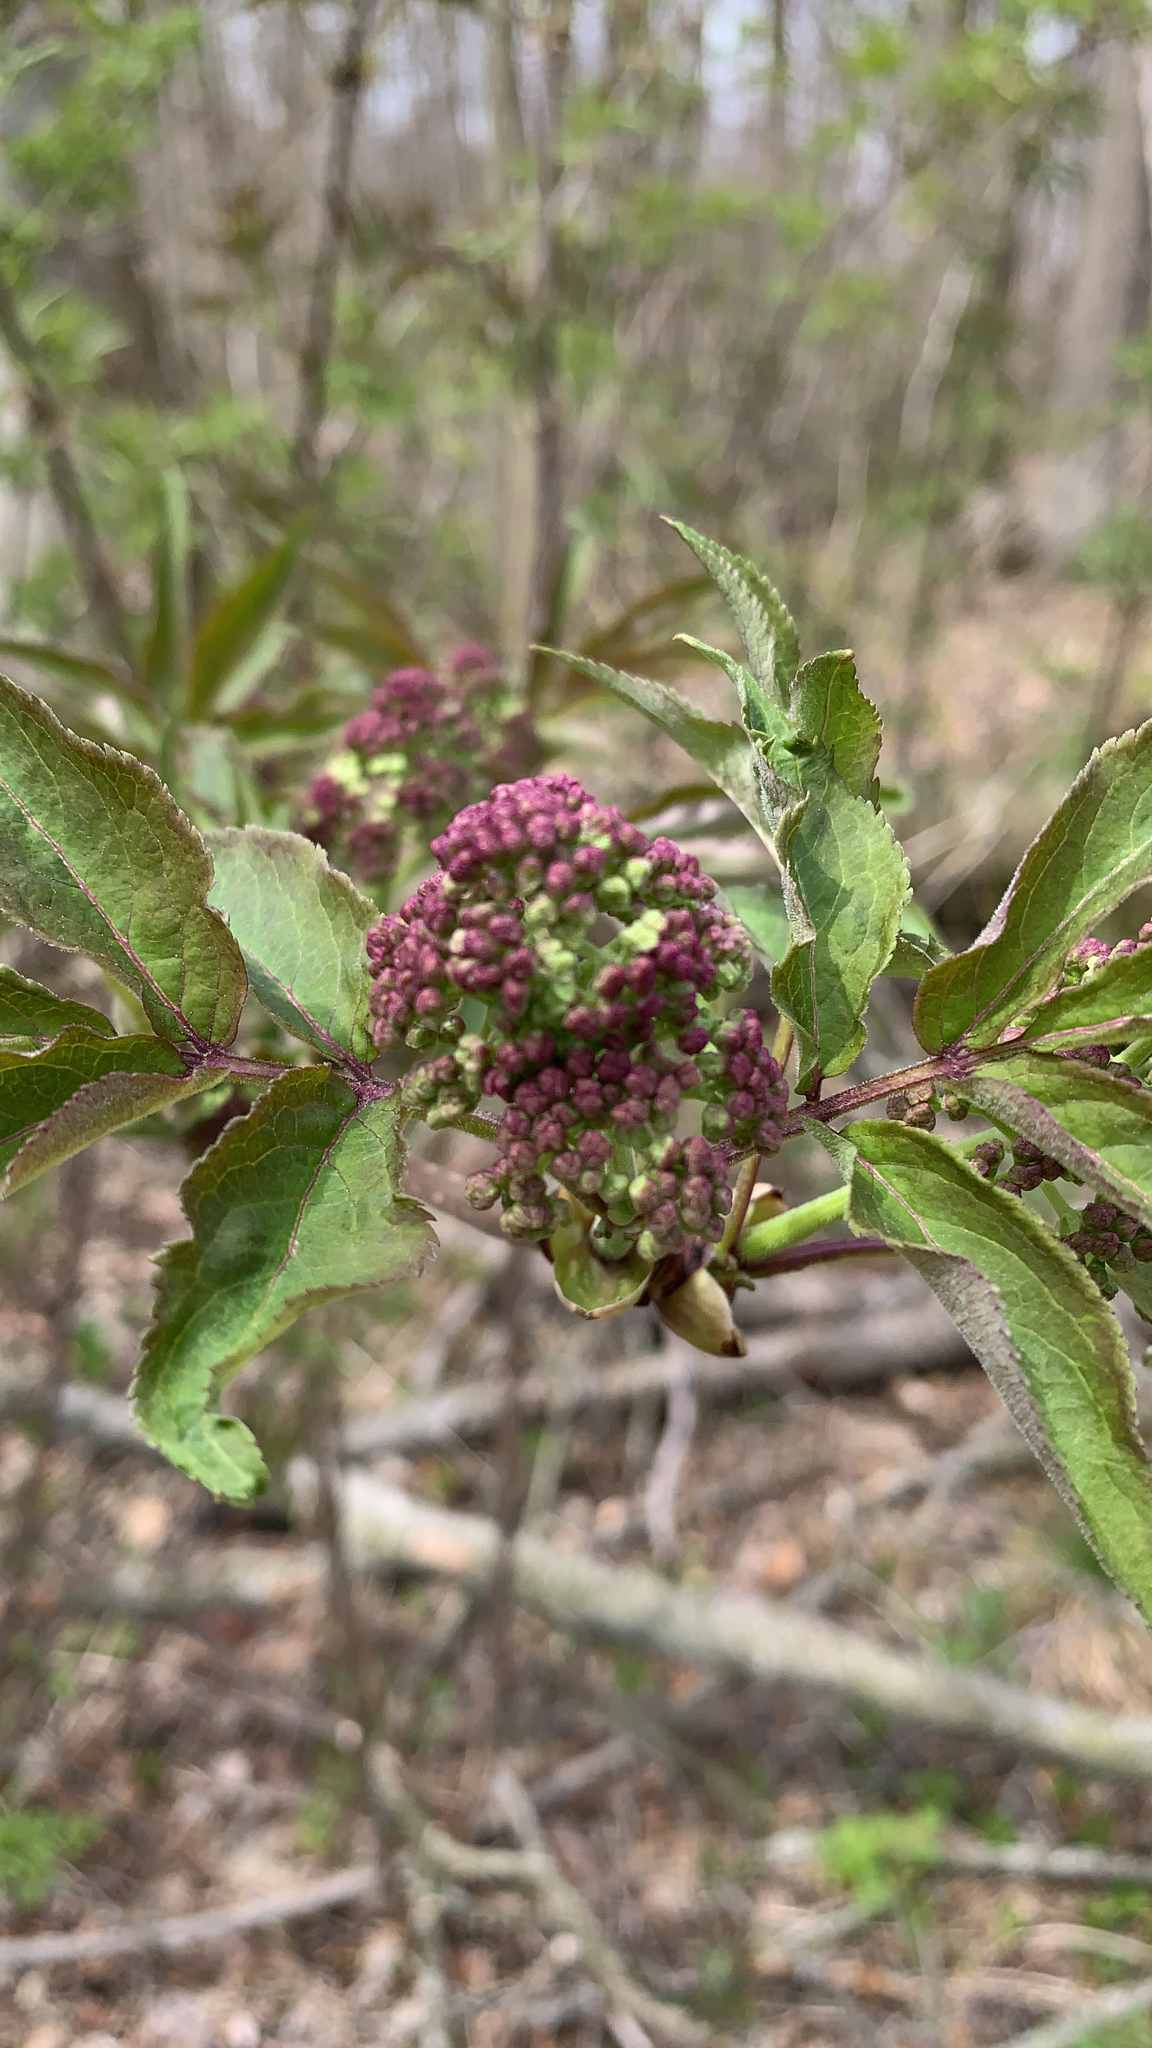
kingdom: Plantae
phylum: Tracheophyta
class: Magnoliopsida
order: Dipsacales
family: Viburnaceae
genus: Sambucus
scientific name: Sambucus racemosa
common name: Red-berried elder
